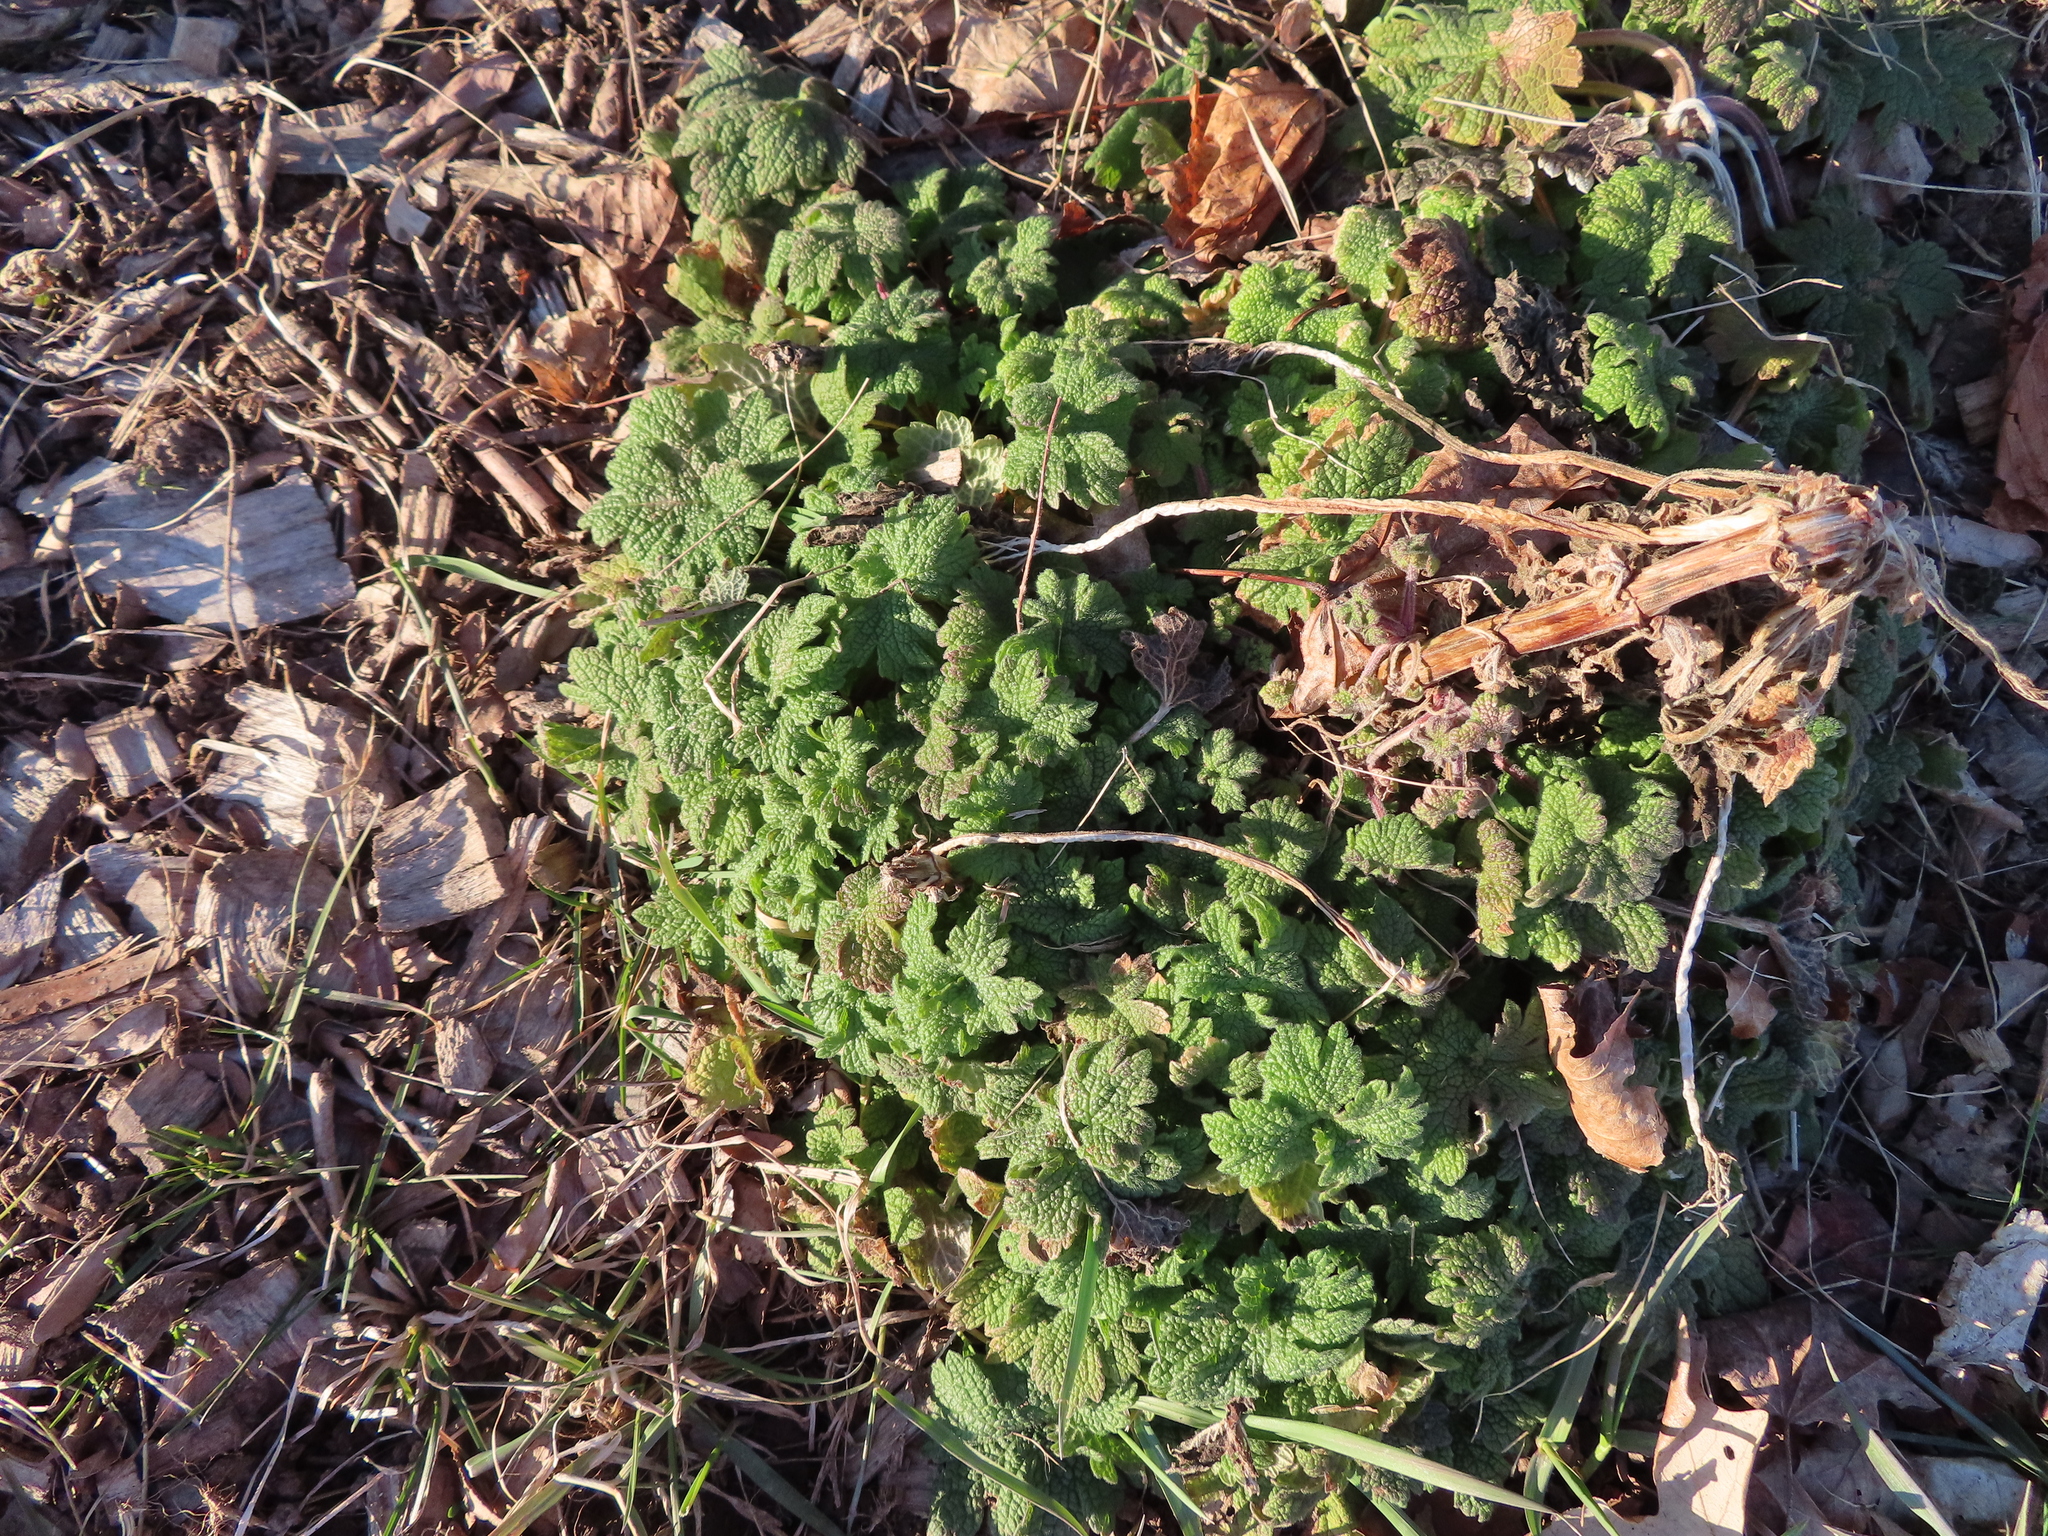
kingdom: Plantae
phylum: Tracheophyta
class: Magnoliopsida
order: Lamiales
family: Lamiaceae
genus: Leonurus
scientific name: Leonurus cardiaca
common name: Motherwort
